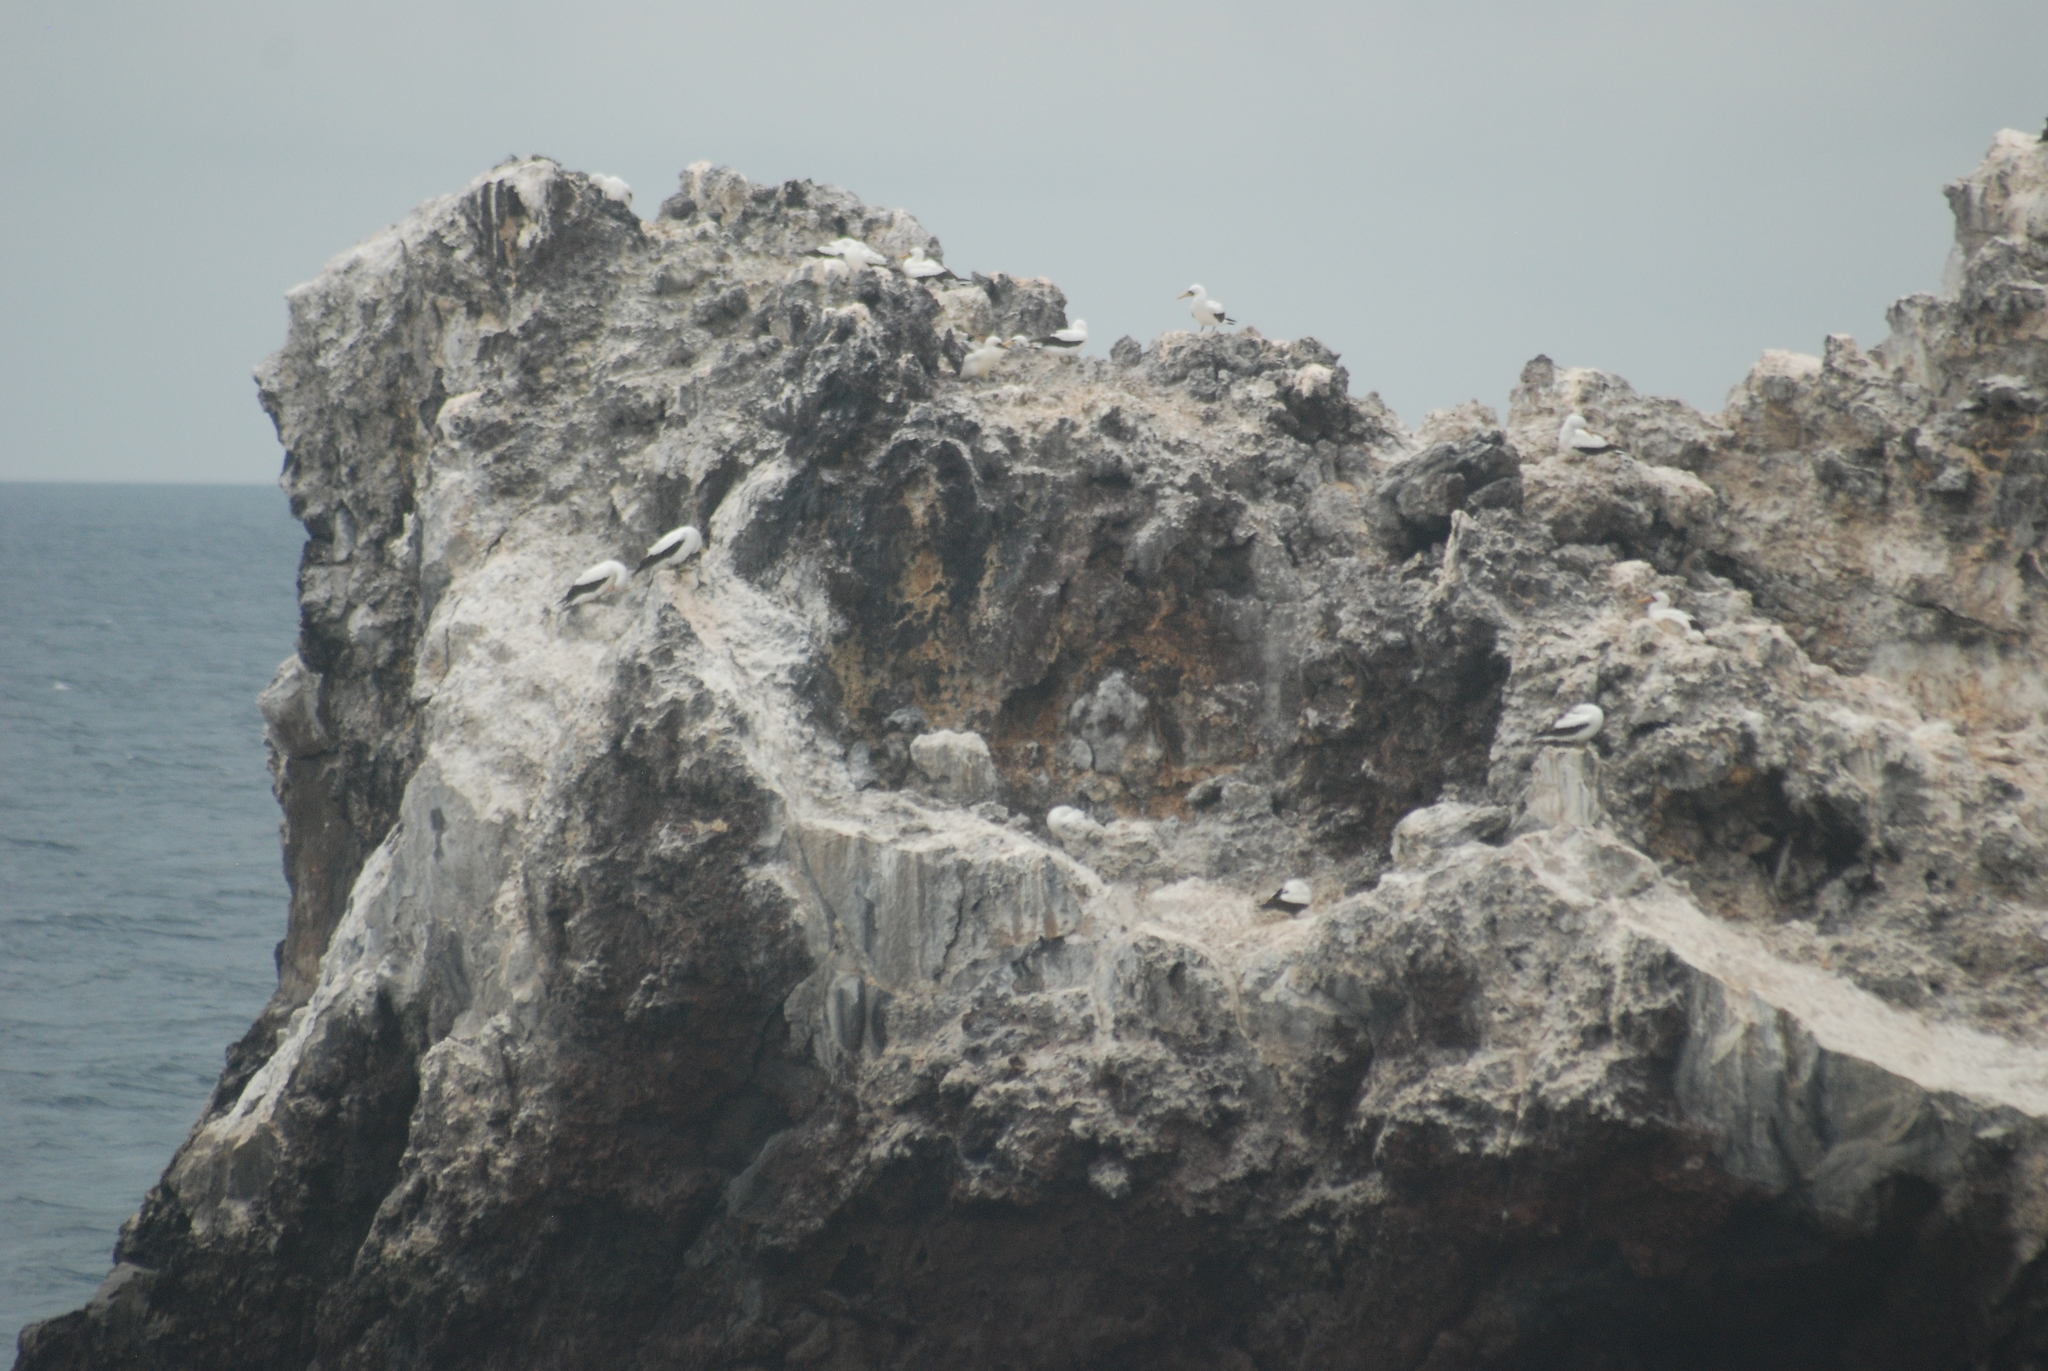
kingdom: Animalia
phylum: Chordata
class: Aves
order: Suliformes
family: Sulidae
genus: Sula
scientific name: Sula granti
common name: Nazca booby
